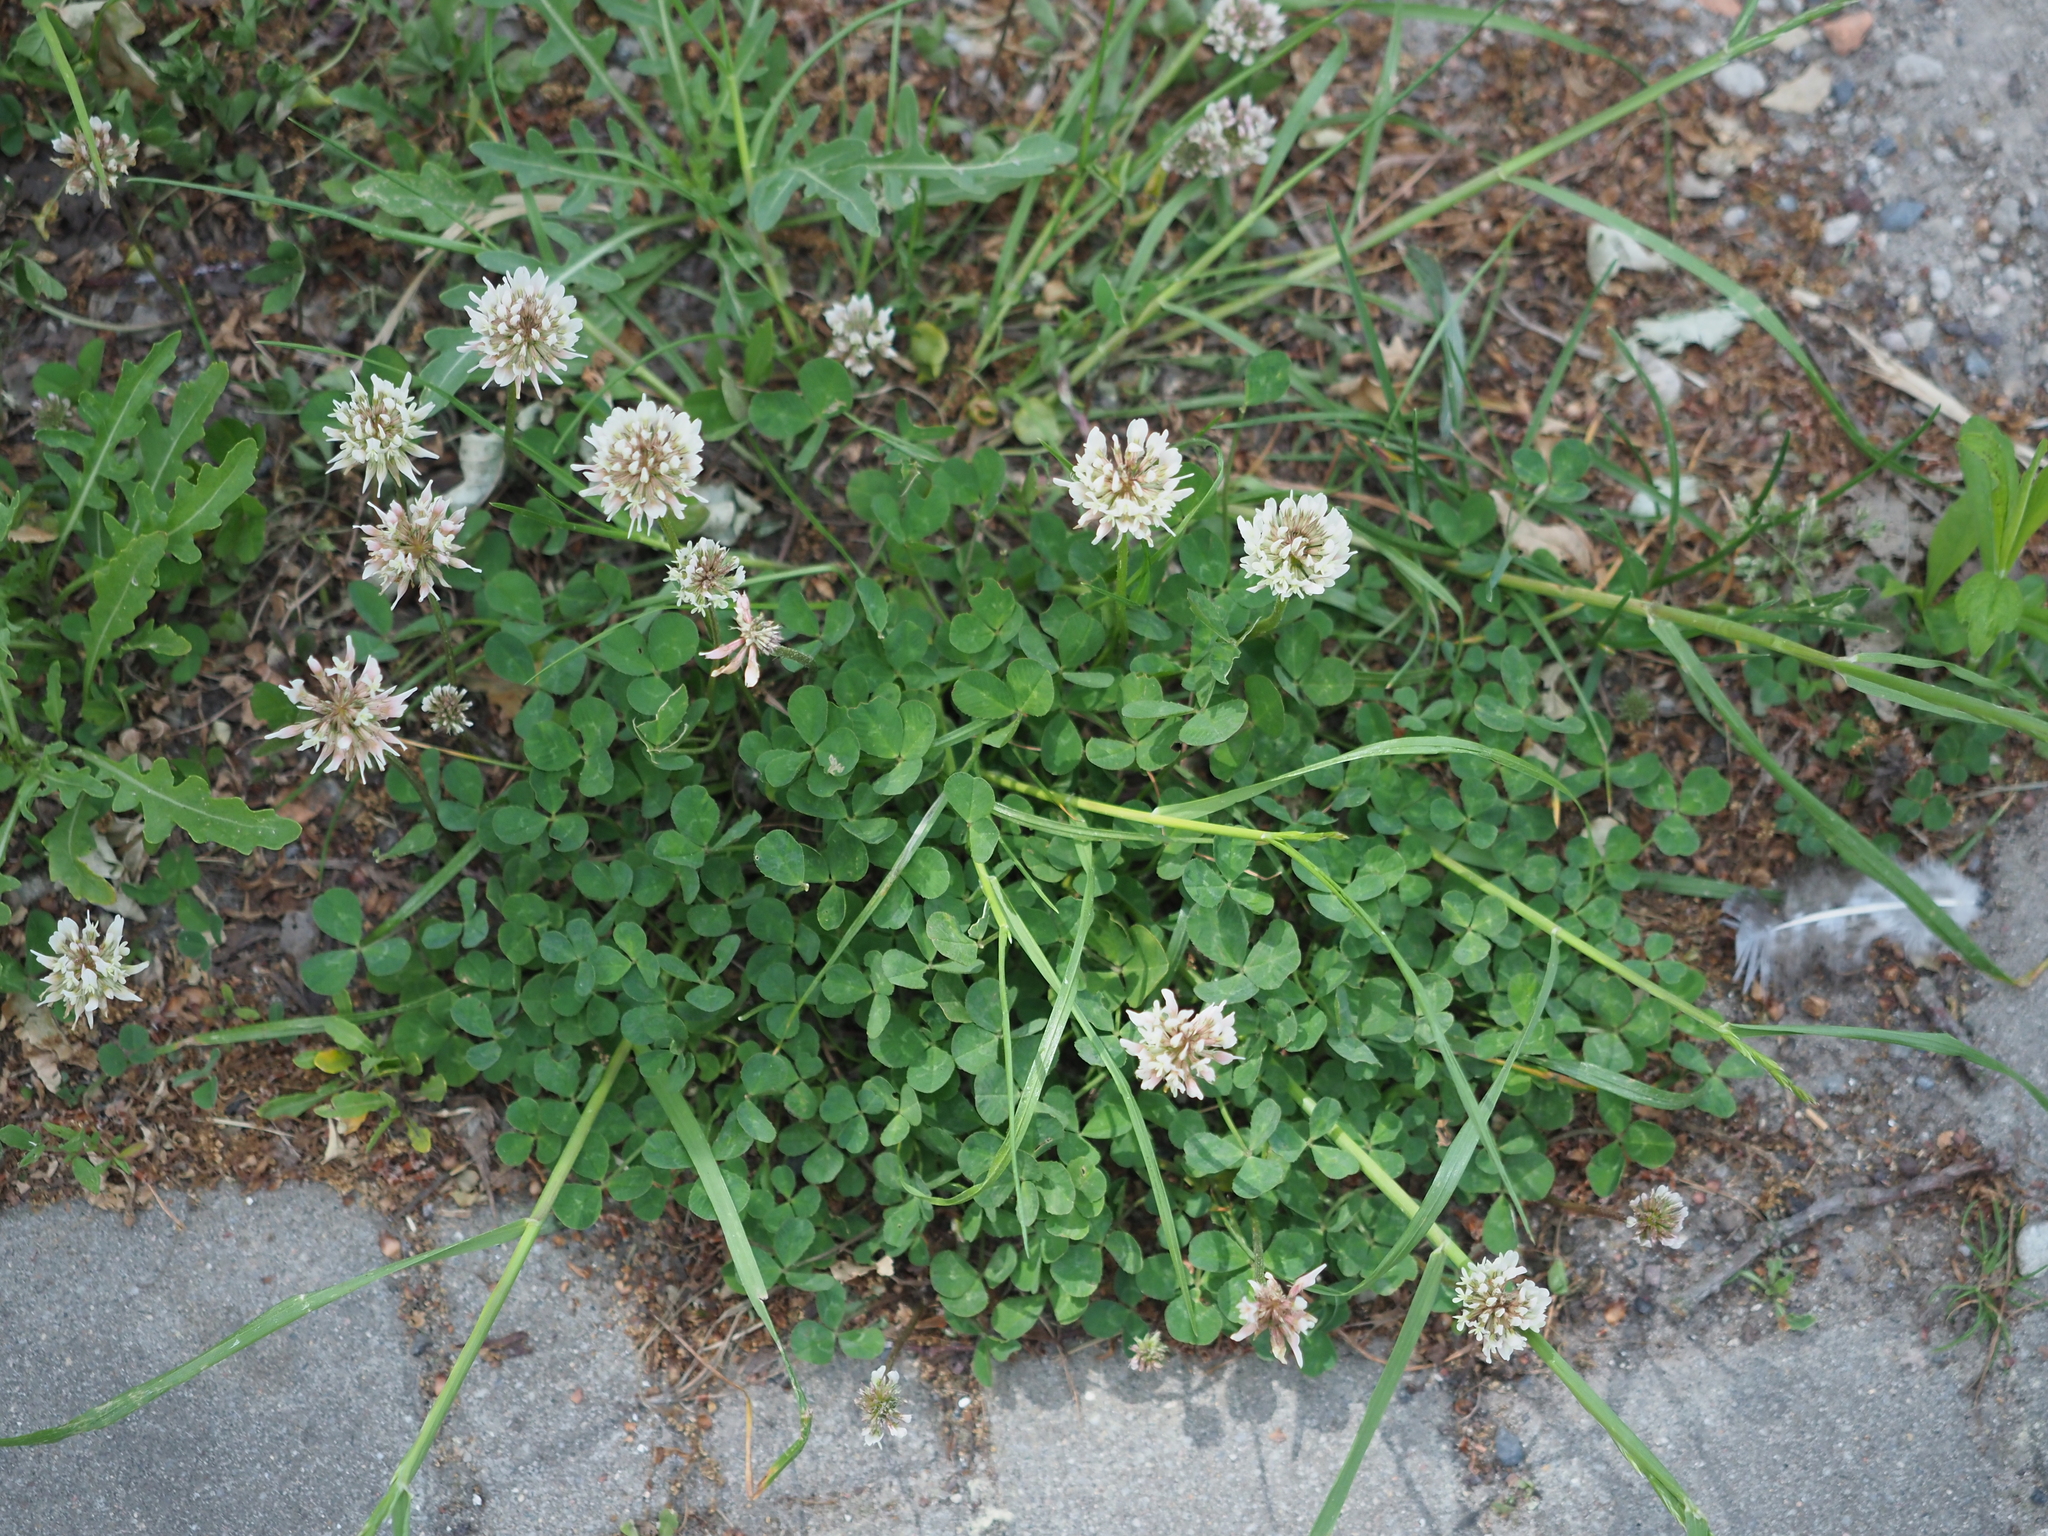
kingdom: Plantae
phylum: Tracheophyta
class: Magnoliopsida
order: Fabales
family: Fabaceae
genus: Trifolium
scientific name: Trifolium repens
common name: White clover
